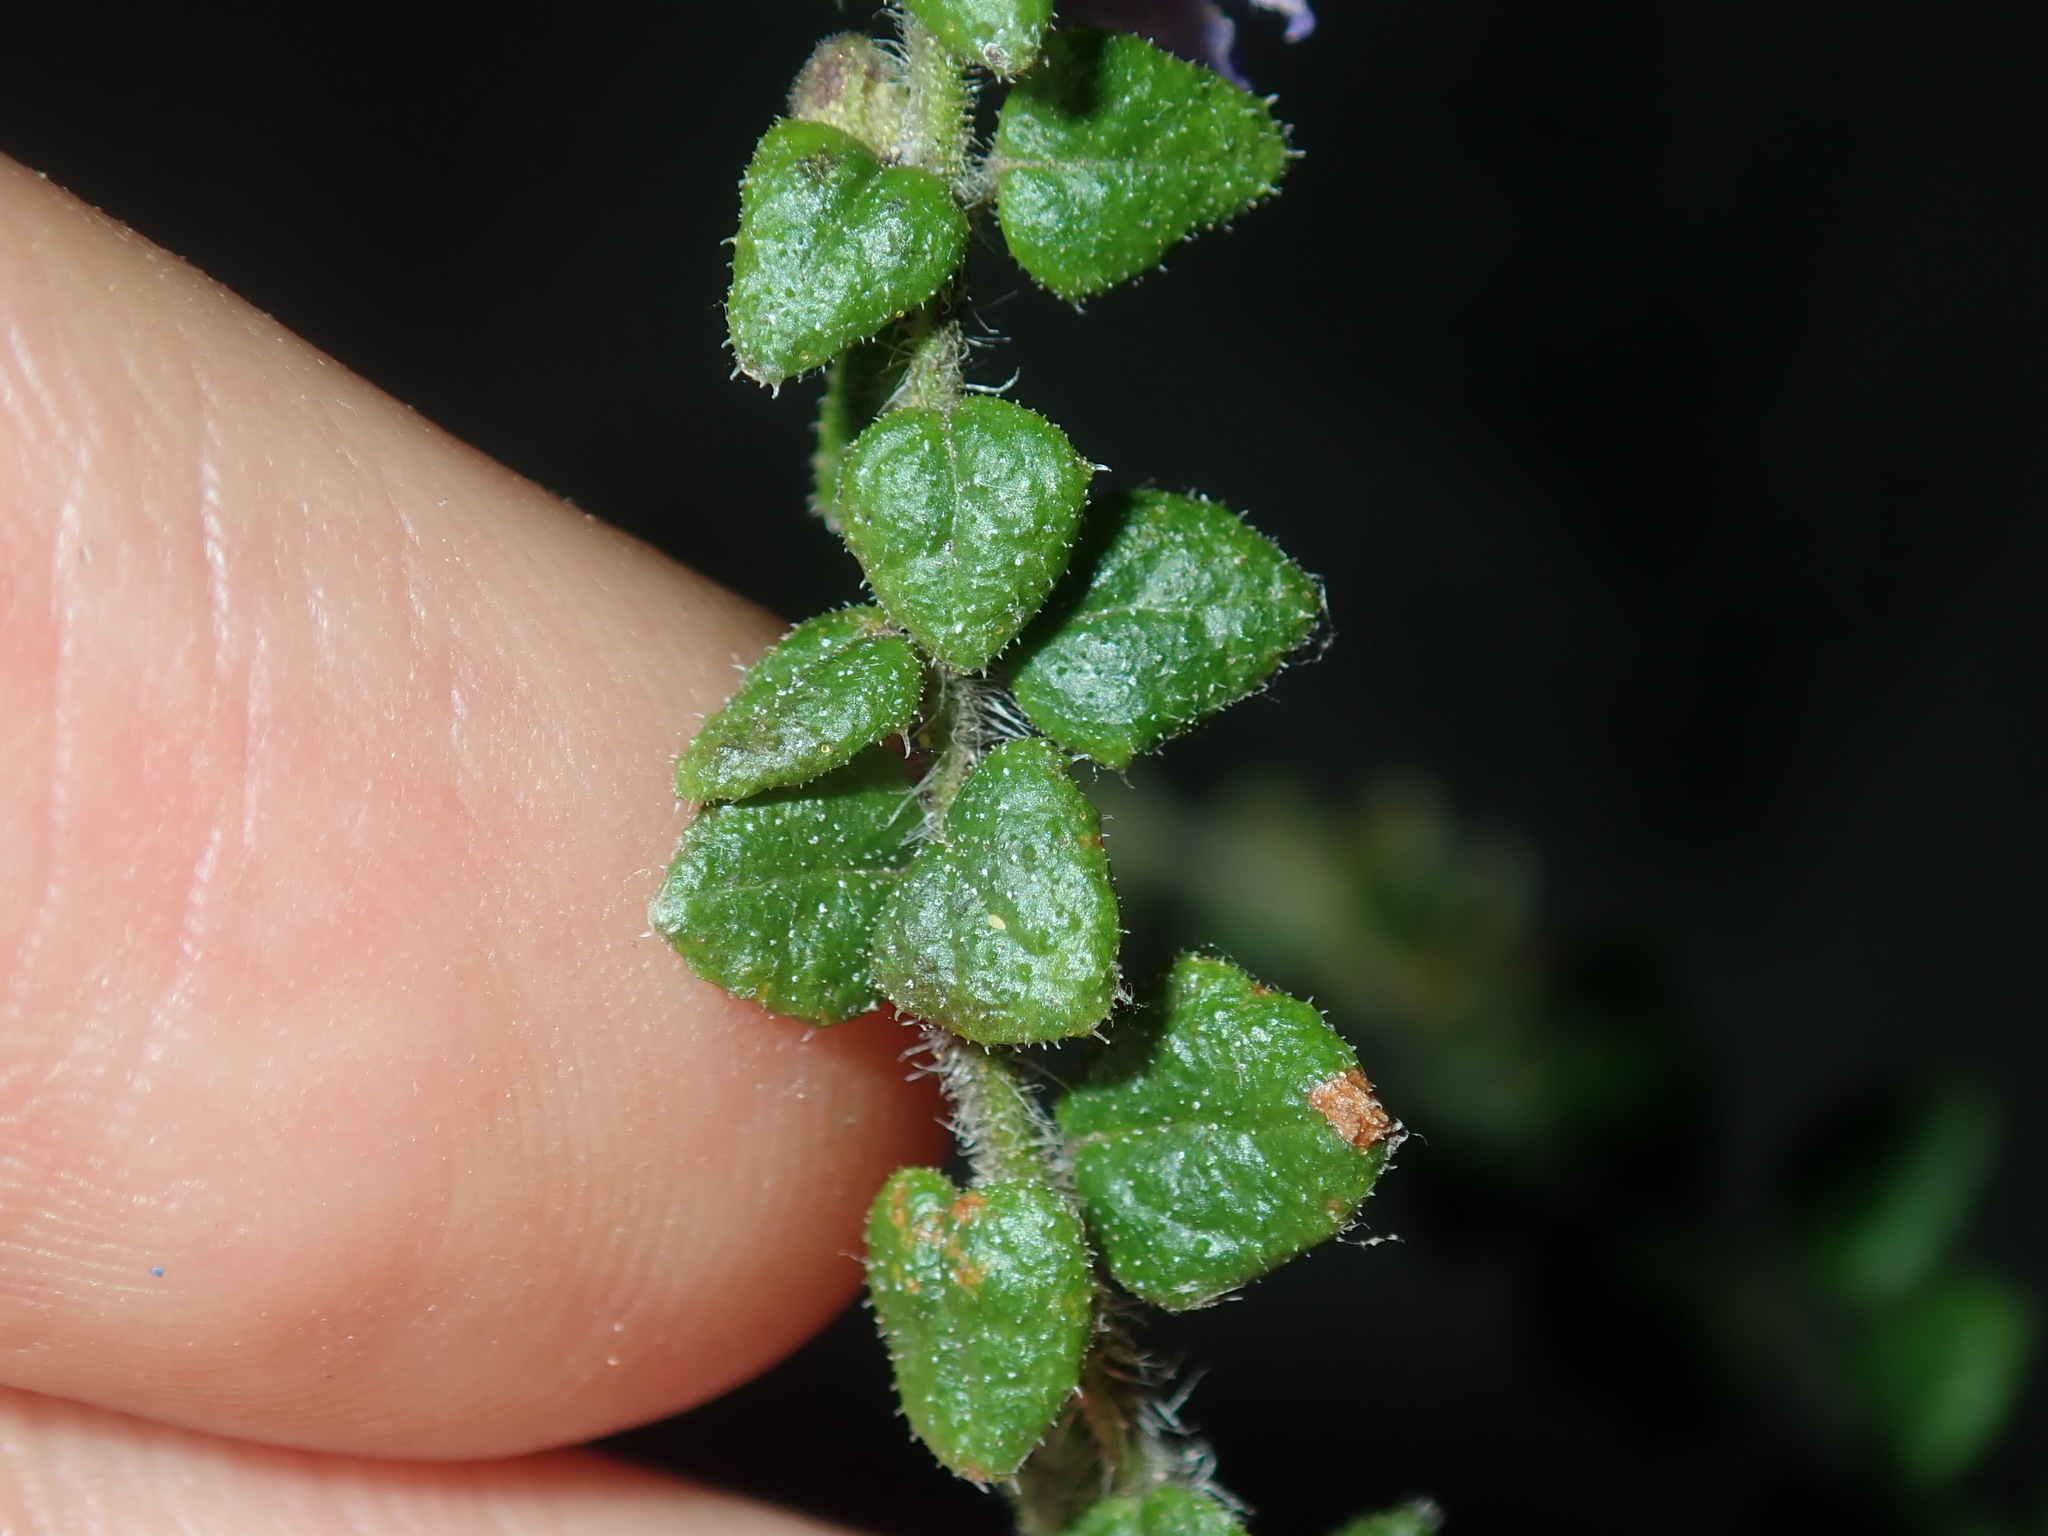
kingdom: Plantae
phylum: Tracheophyta
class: Magnoliopsida
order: Lamiales
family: Lamiaceae
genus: Prostanthera
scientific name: Prostanthera rhombea
